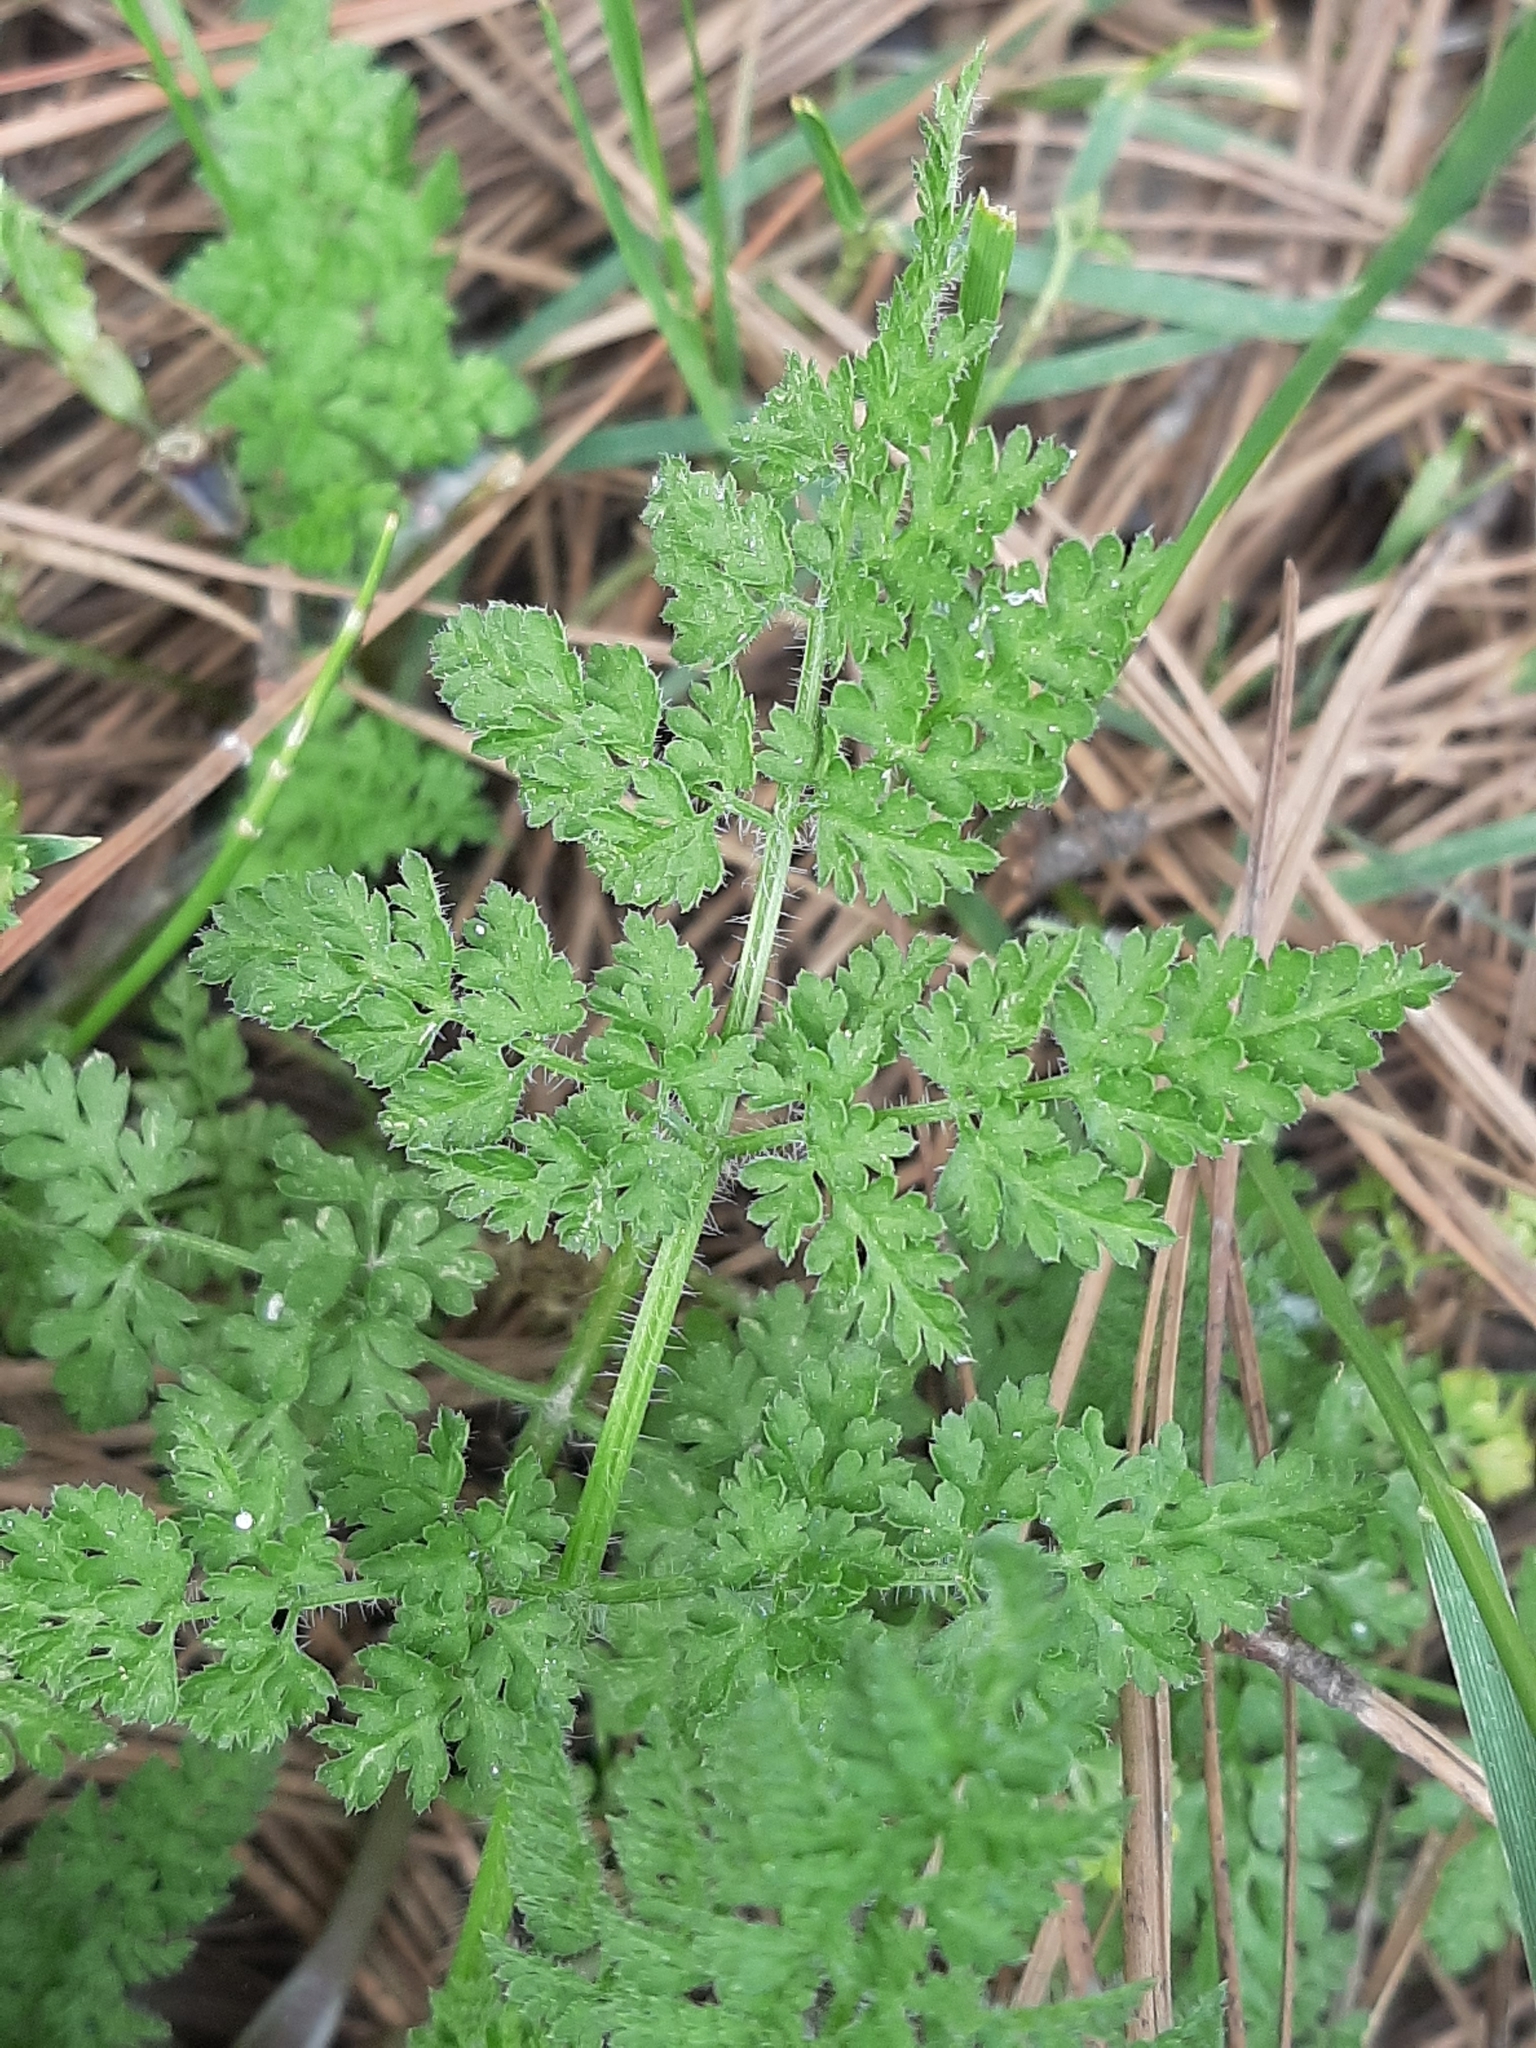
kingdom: Plantae
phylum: Tracheophyta
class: Magnoliopsida
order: Apiales
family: Apiaceae
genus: Anthriscus
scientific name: Anthriscus caucalis
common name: Bur chervil
